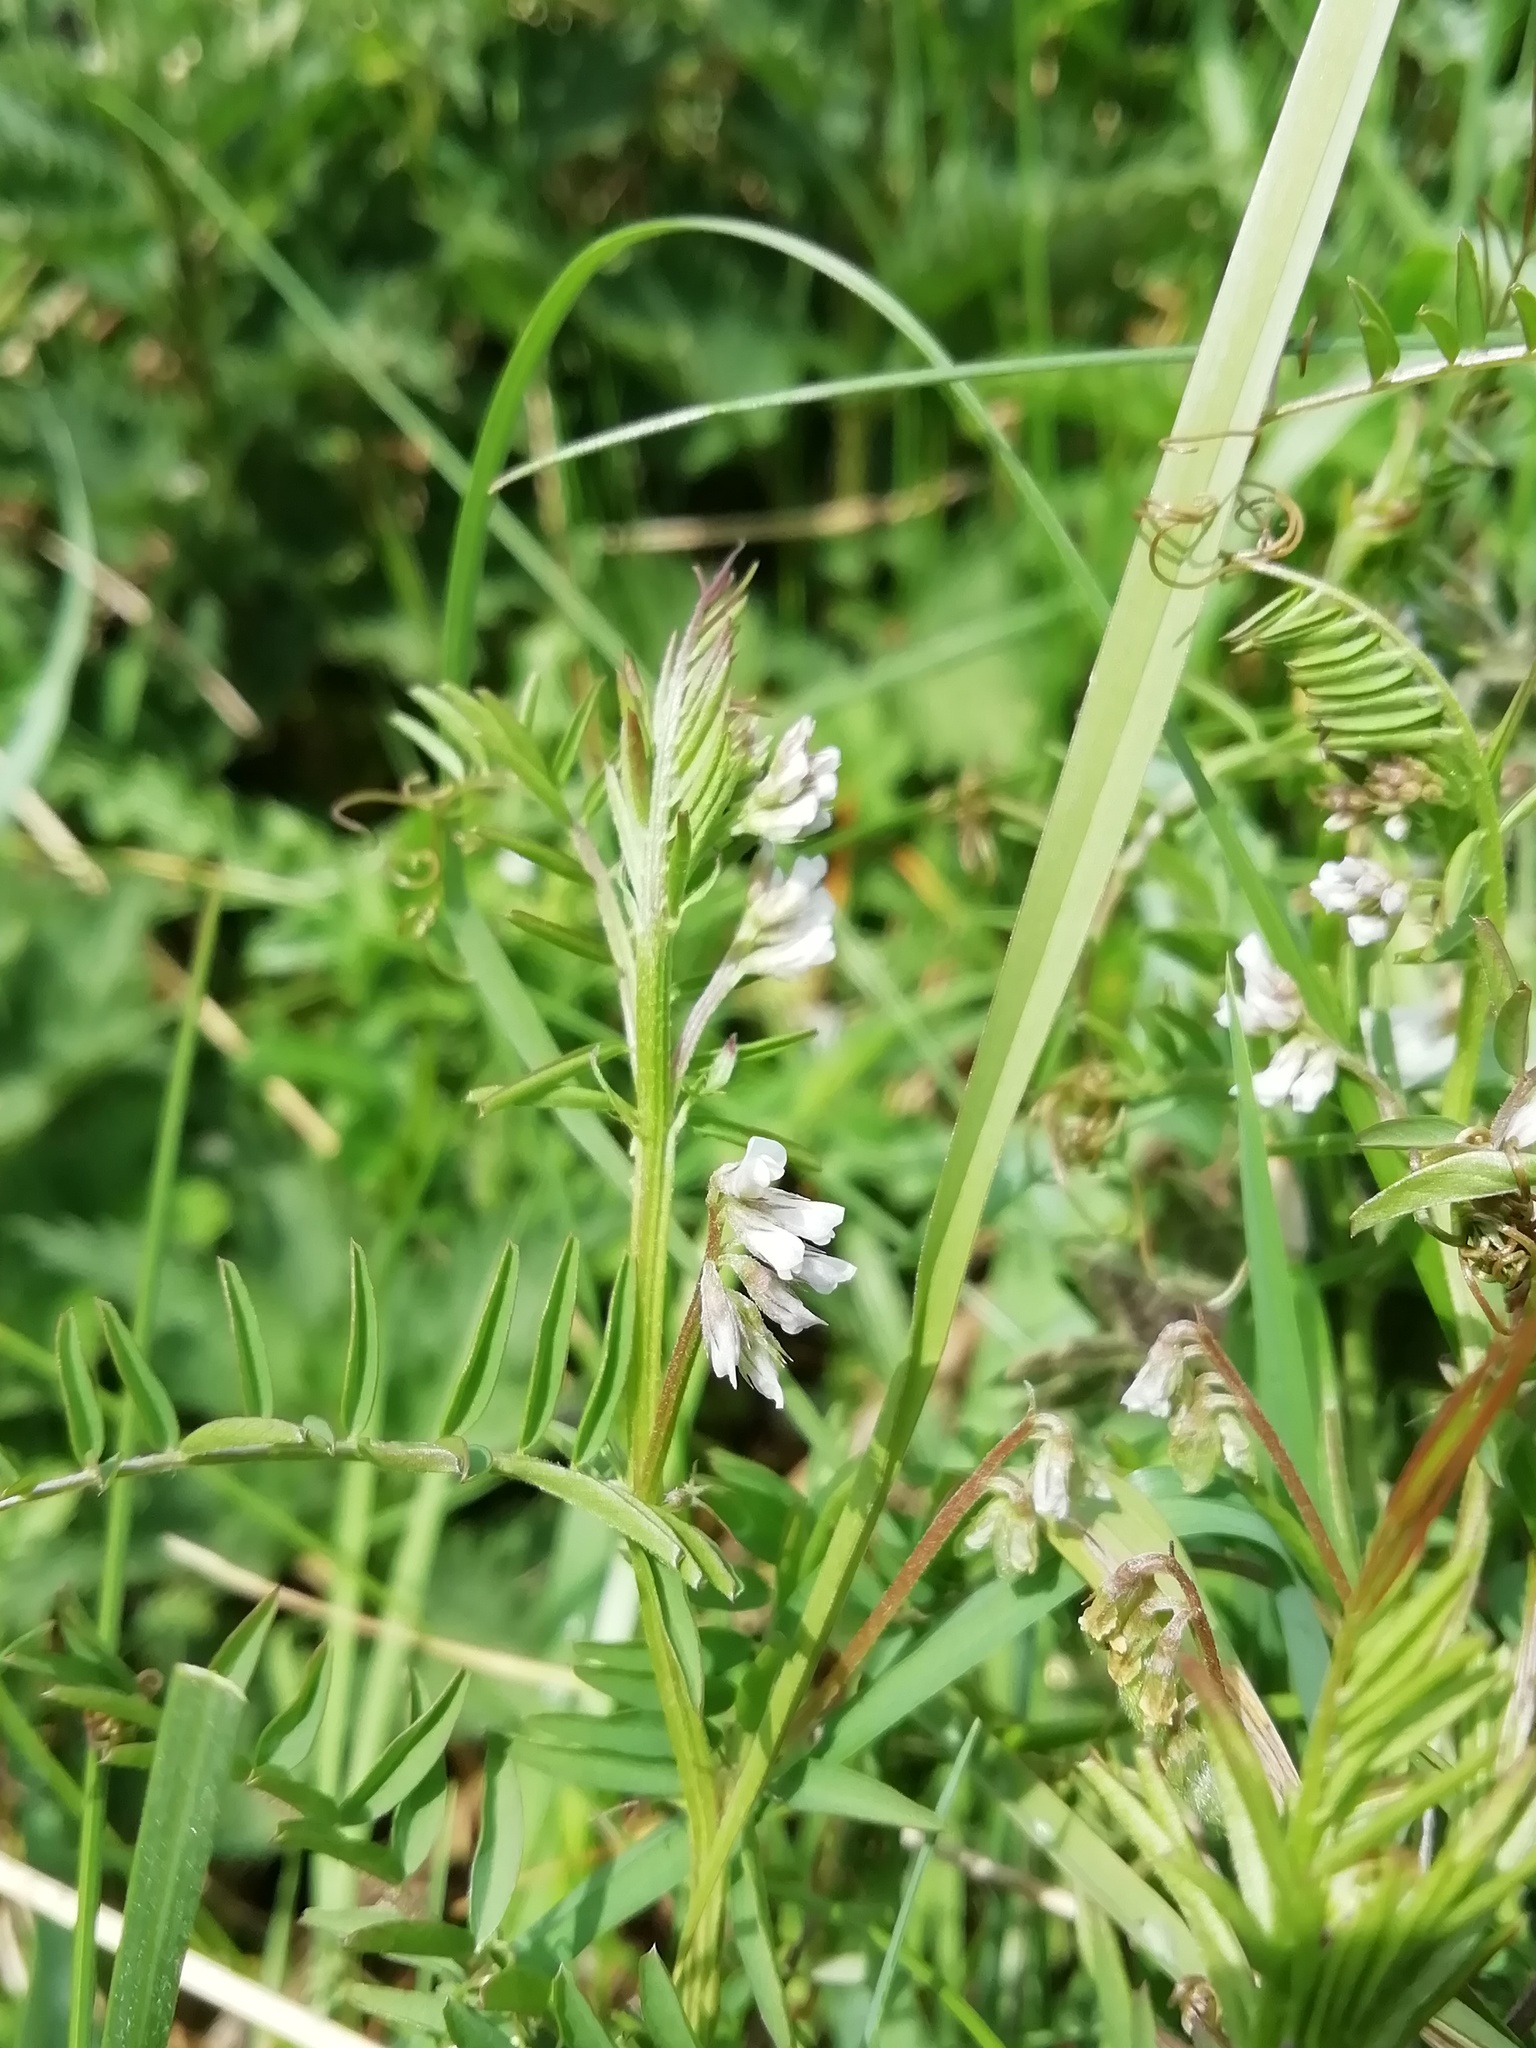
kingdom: Plantae
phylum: Tracheophyta
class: Magnoliopsida
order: Fabales
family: Fabaceae
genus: Vicia
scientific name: Vicia hirsuta
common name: Tiny vetch
